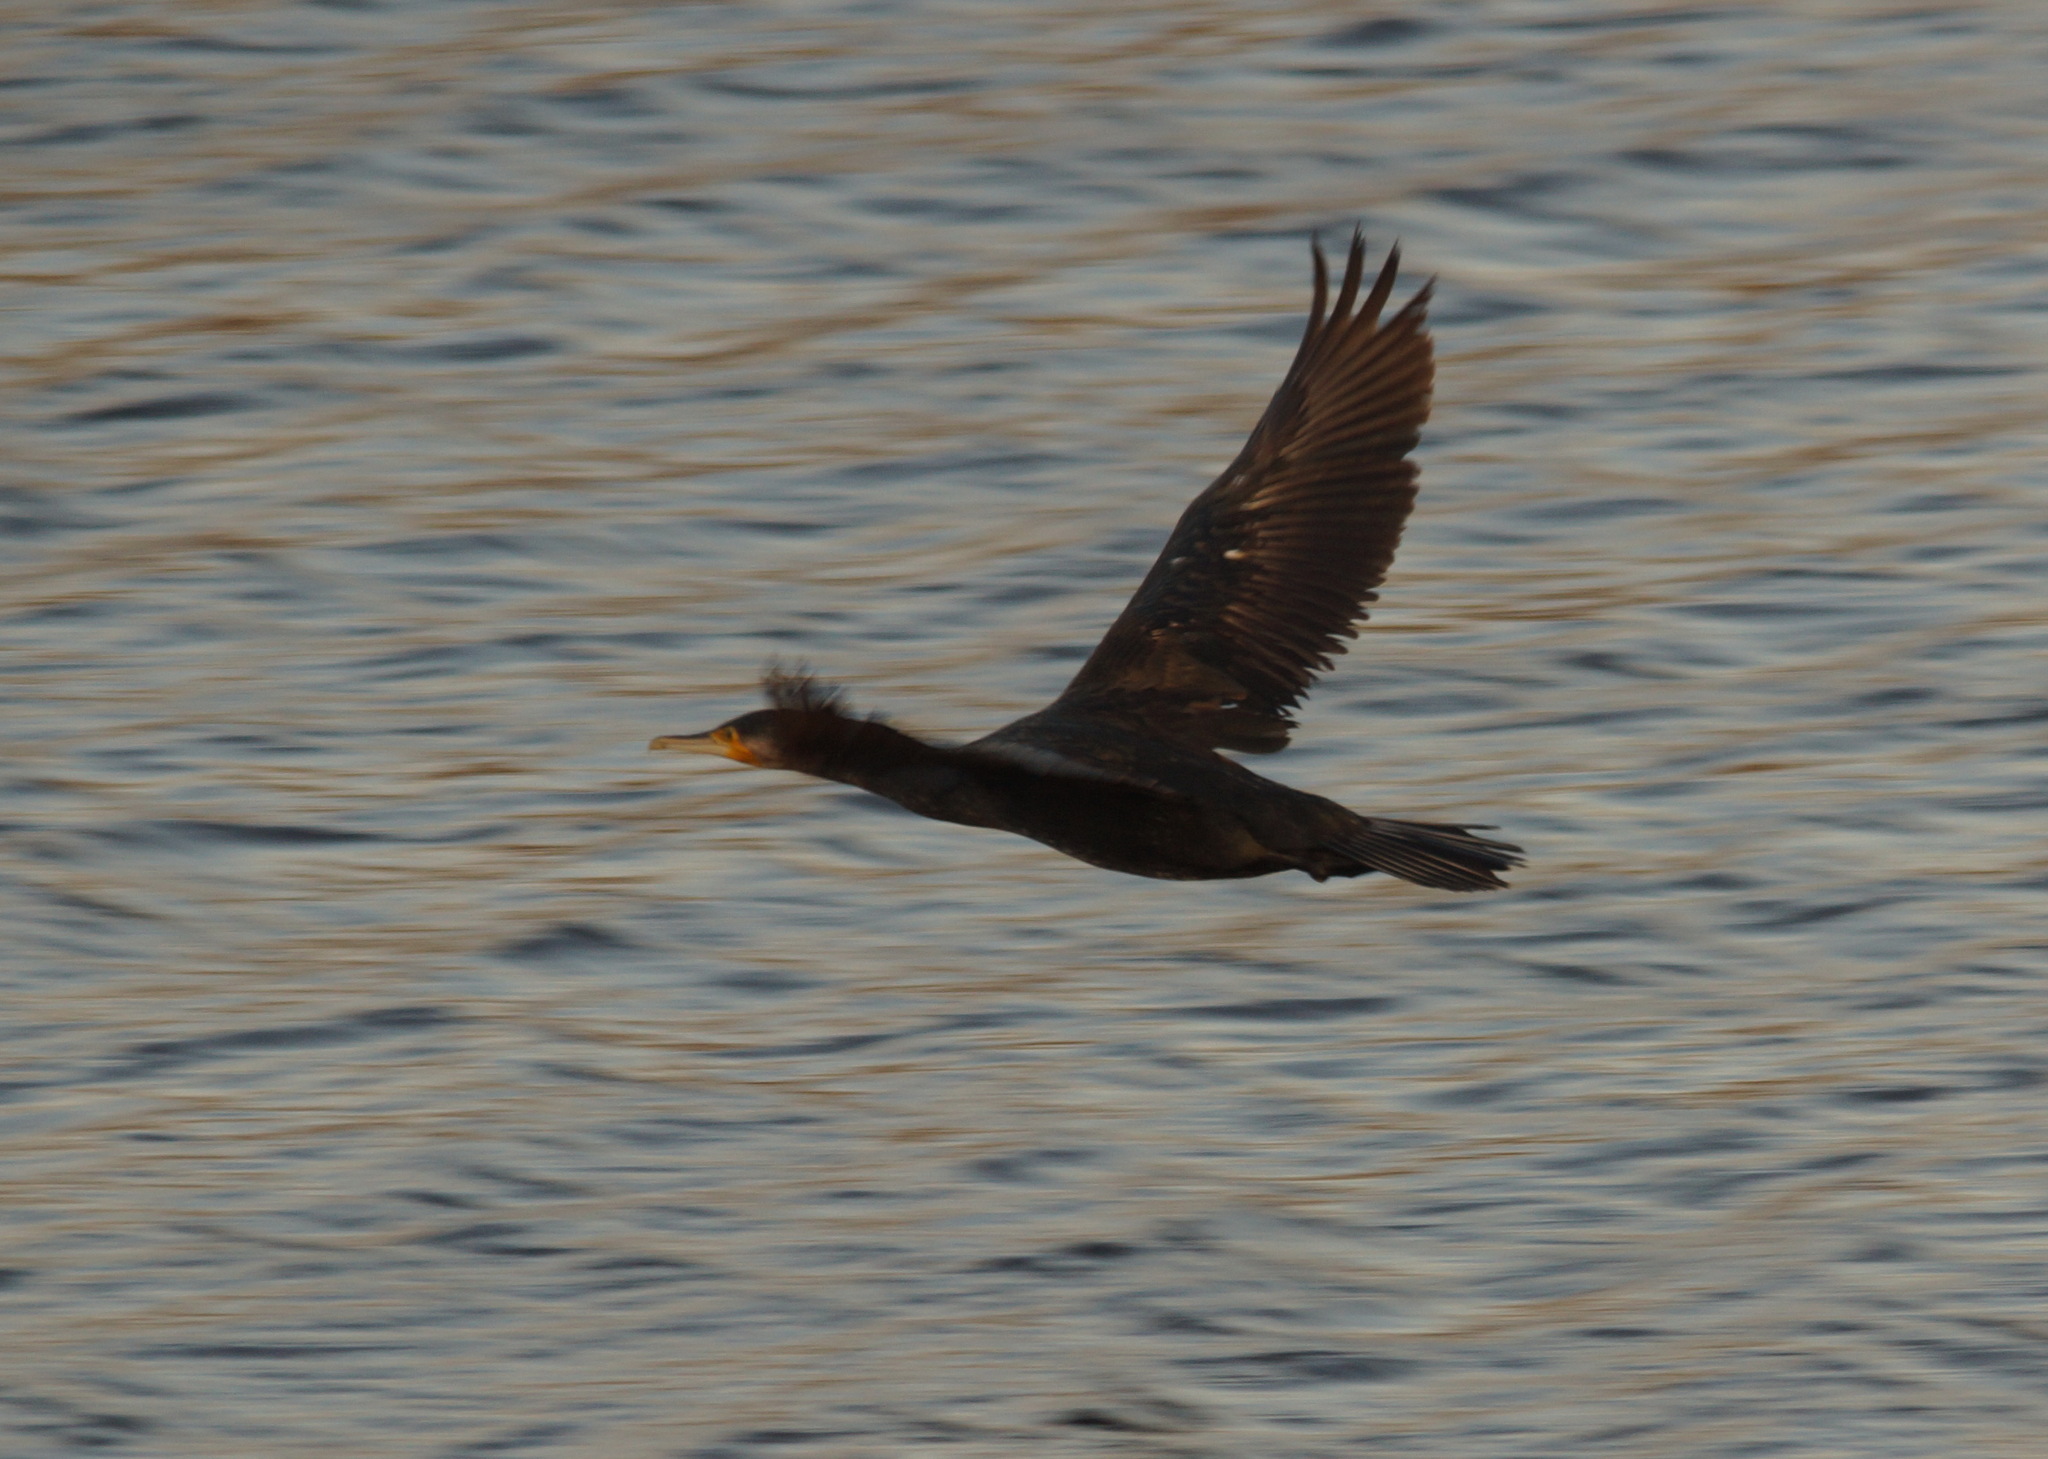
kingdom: Animalia
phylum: Chordata
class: Aves
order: Suliformes
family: Phalacrocoracidae
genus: Phalacrocorax
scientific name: Phalacrocorax carbo
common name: Great cormorant
